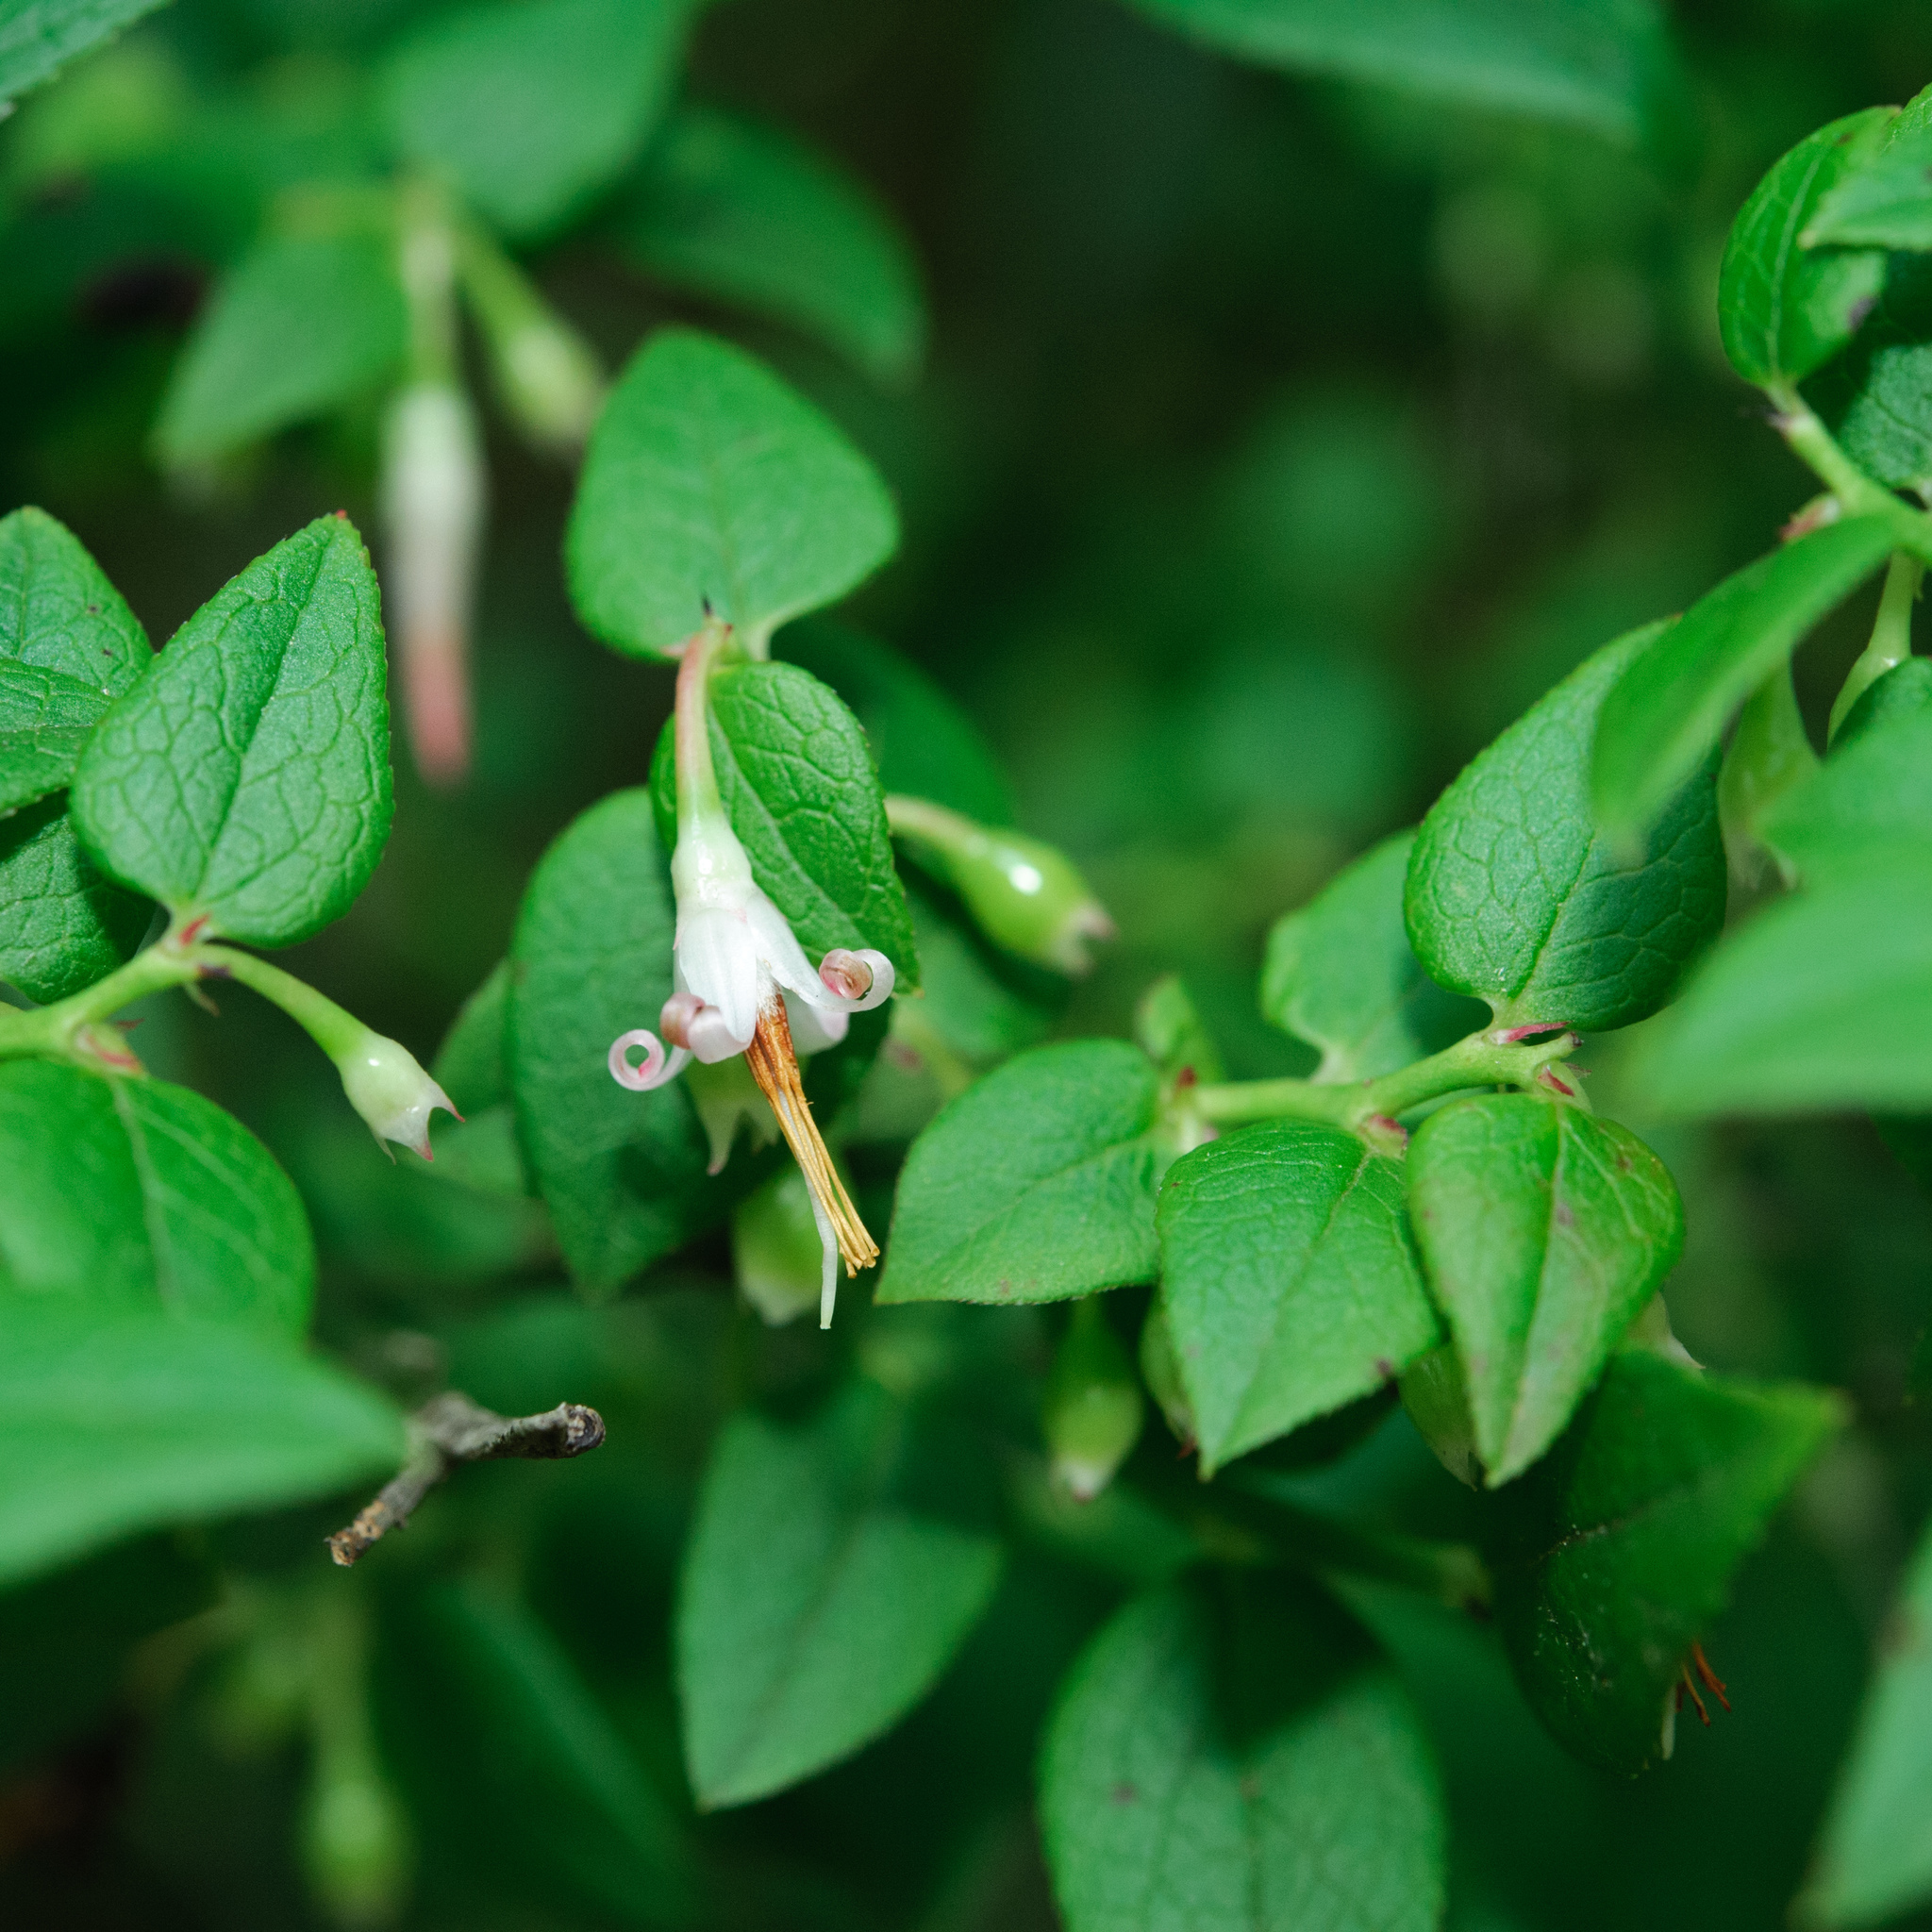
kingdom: Plantae
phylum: Tracheophyta
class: Magnoliopsida
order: Ericales
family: Ericaceae
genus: Vaccinium
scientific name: Vaccinium japonicum
